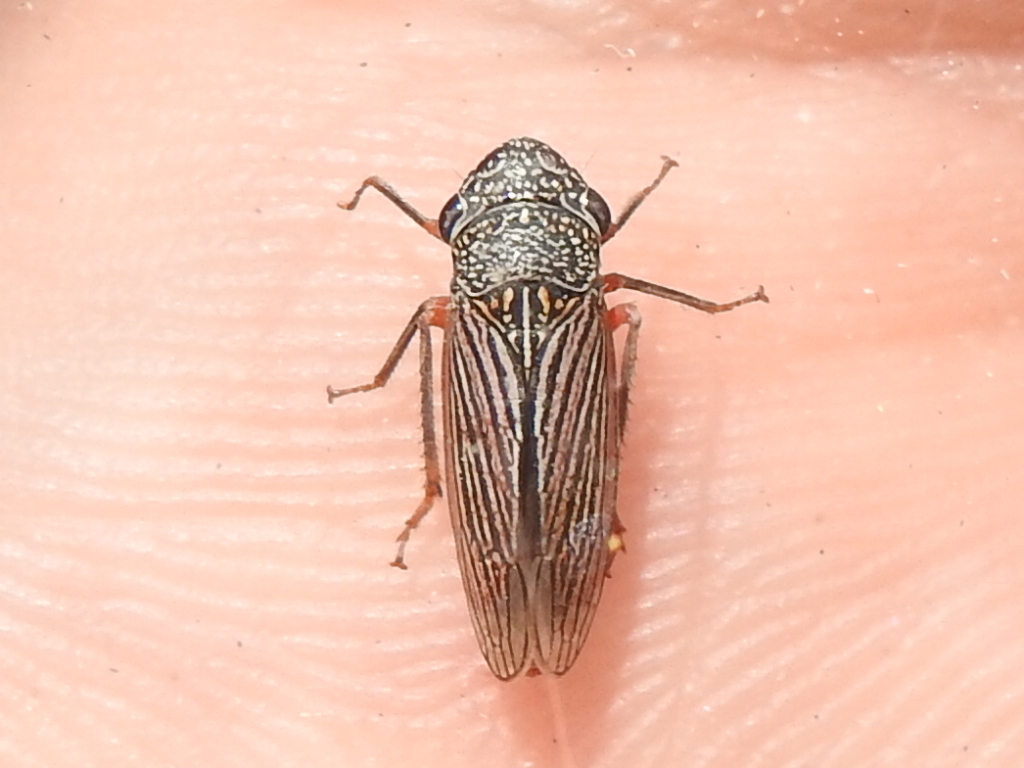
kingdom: Animalia
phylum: Arthropoda
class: Insecta
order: Hemiptera
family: Cicadellidae
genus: Cuerna
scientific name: Cuerna costalis
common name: Lateral-lined sharpshooter
